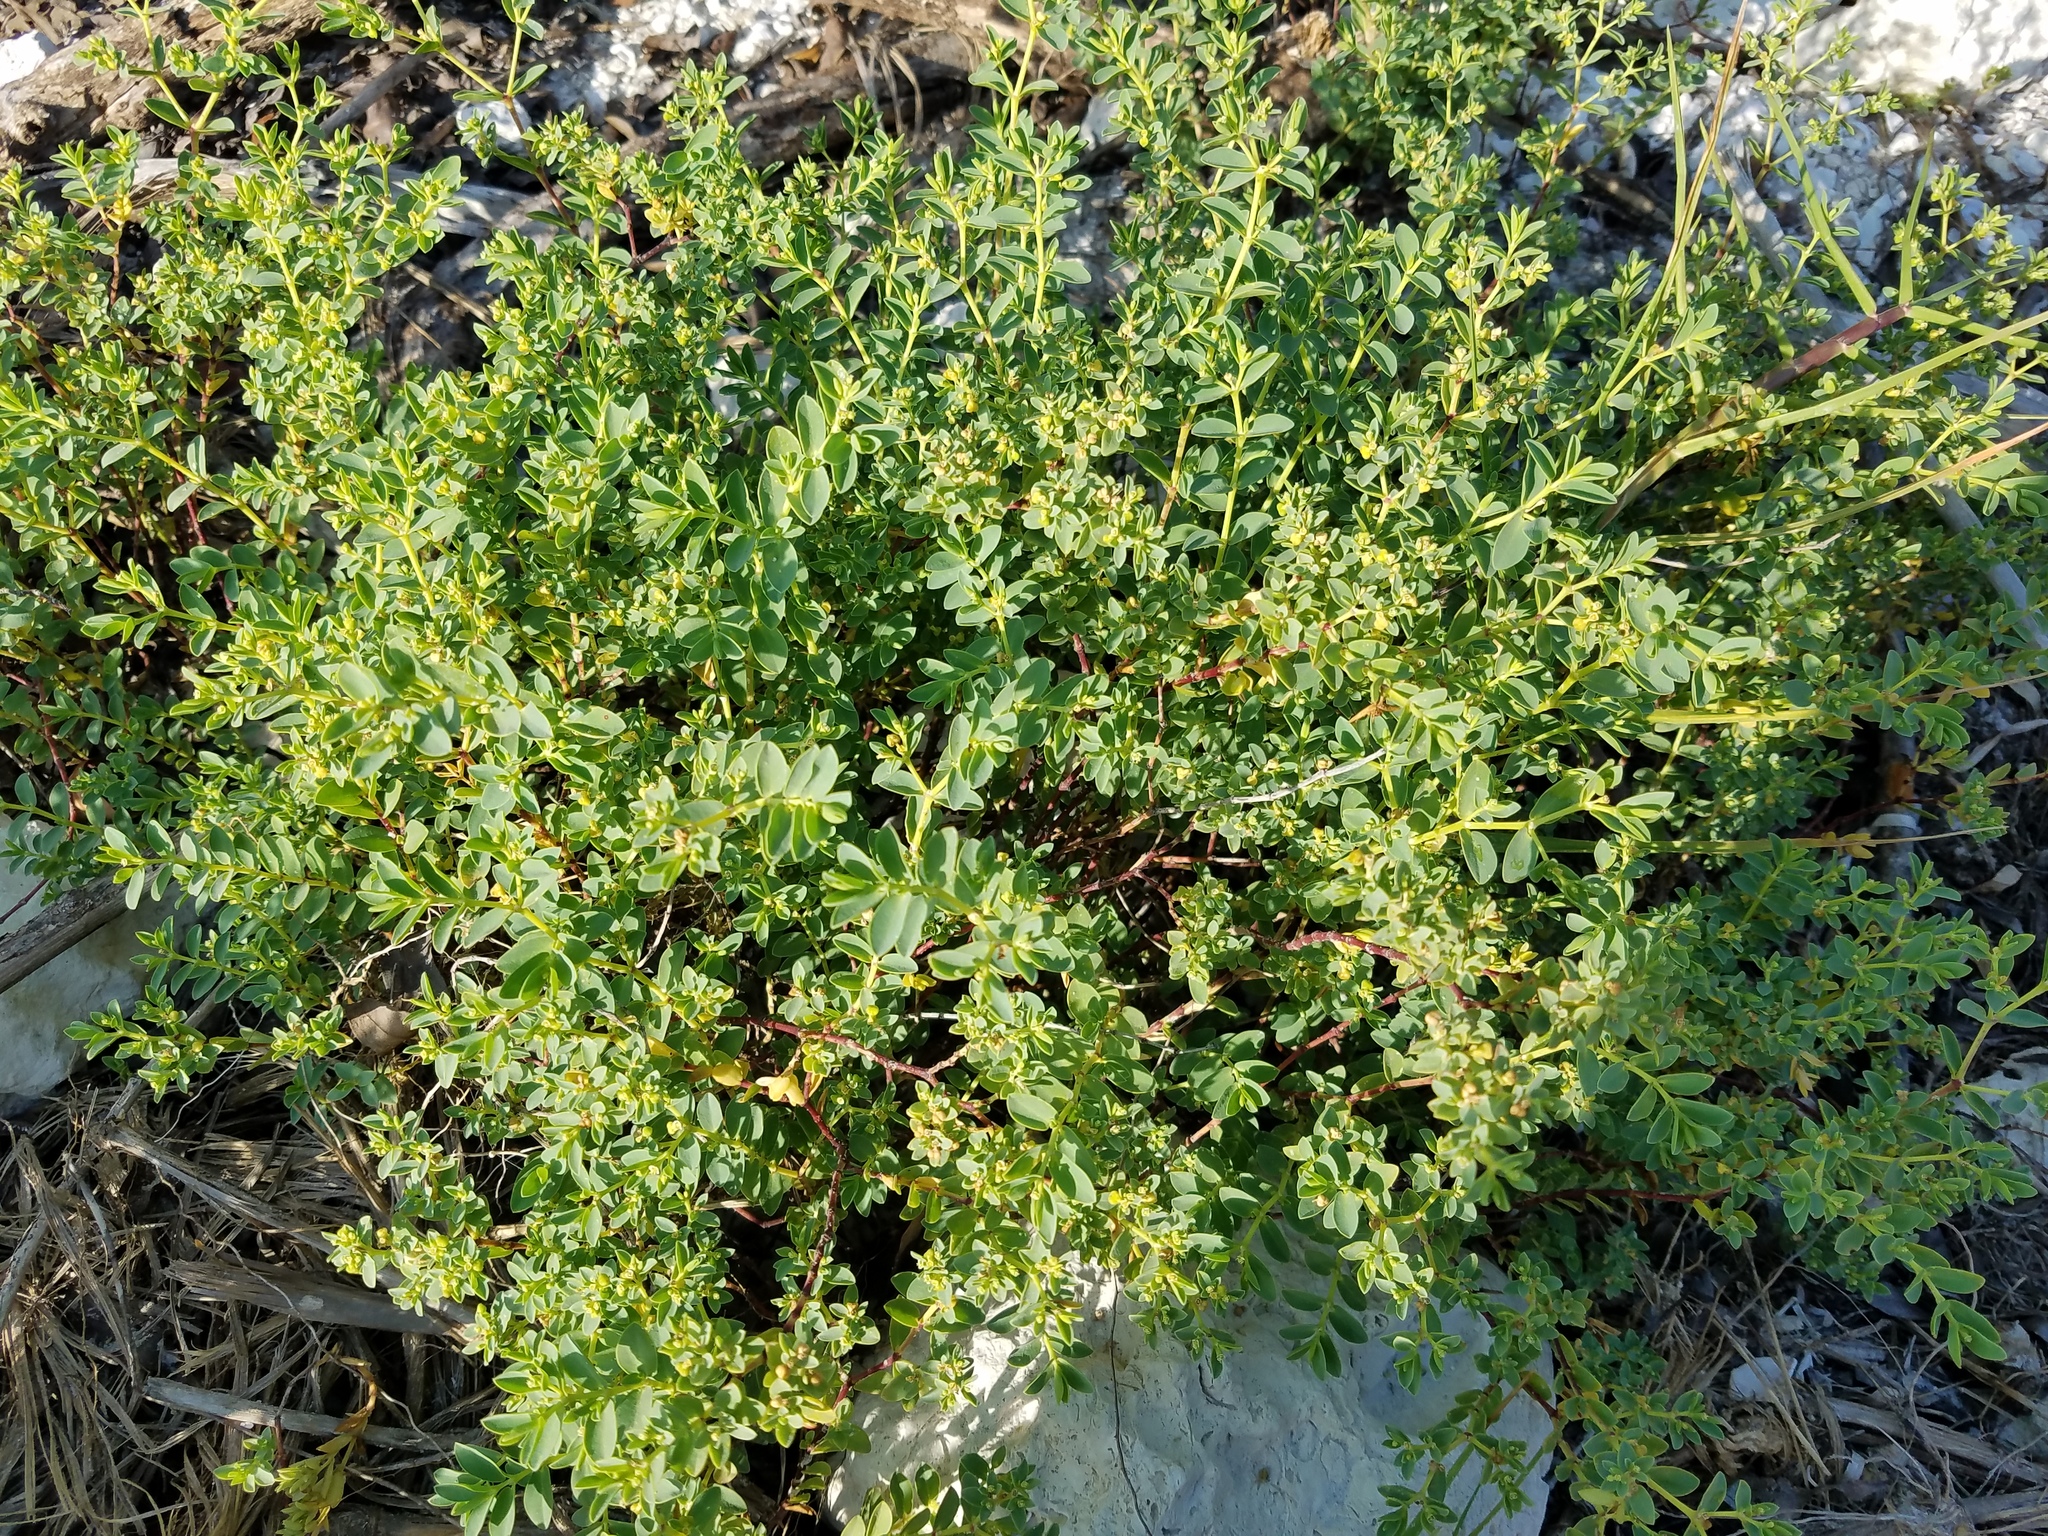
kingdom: Plantae
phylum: Tracheophyta
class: Magnoliopsida
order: Malpighiales
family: Euphorbiaceae
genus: Euphorbia
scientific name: Euphorbia mesembryanthemifolia
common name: Coastal beach sandmat
